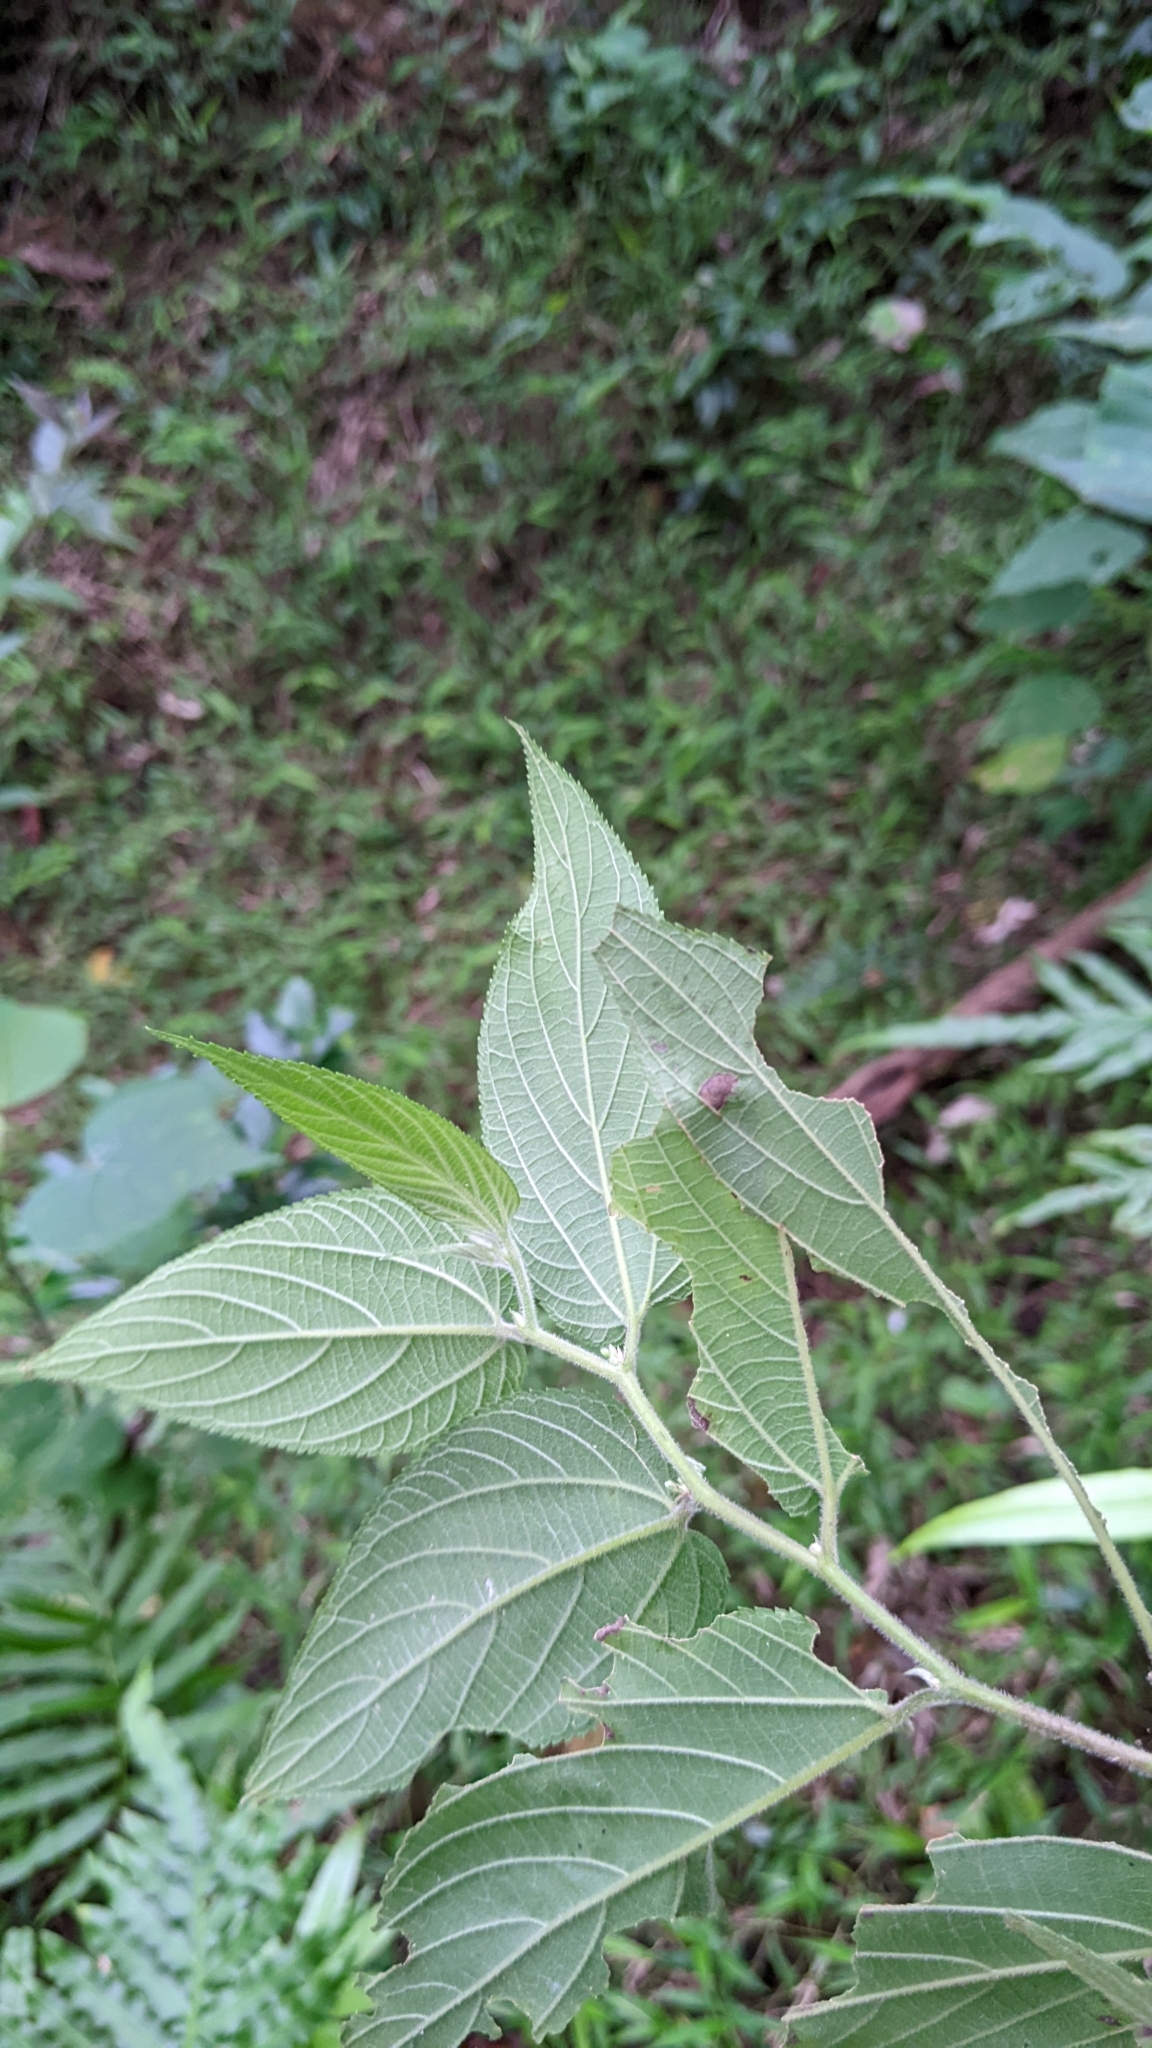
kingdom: Plantae
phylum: Tracheophyta
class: Magnoliopsida
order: Rosales
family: Cannabaceae
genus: Trema
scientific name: Trema tomentosum
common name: Peach-leaf-poisonbush
